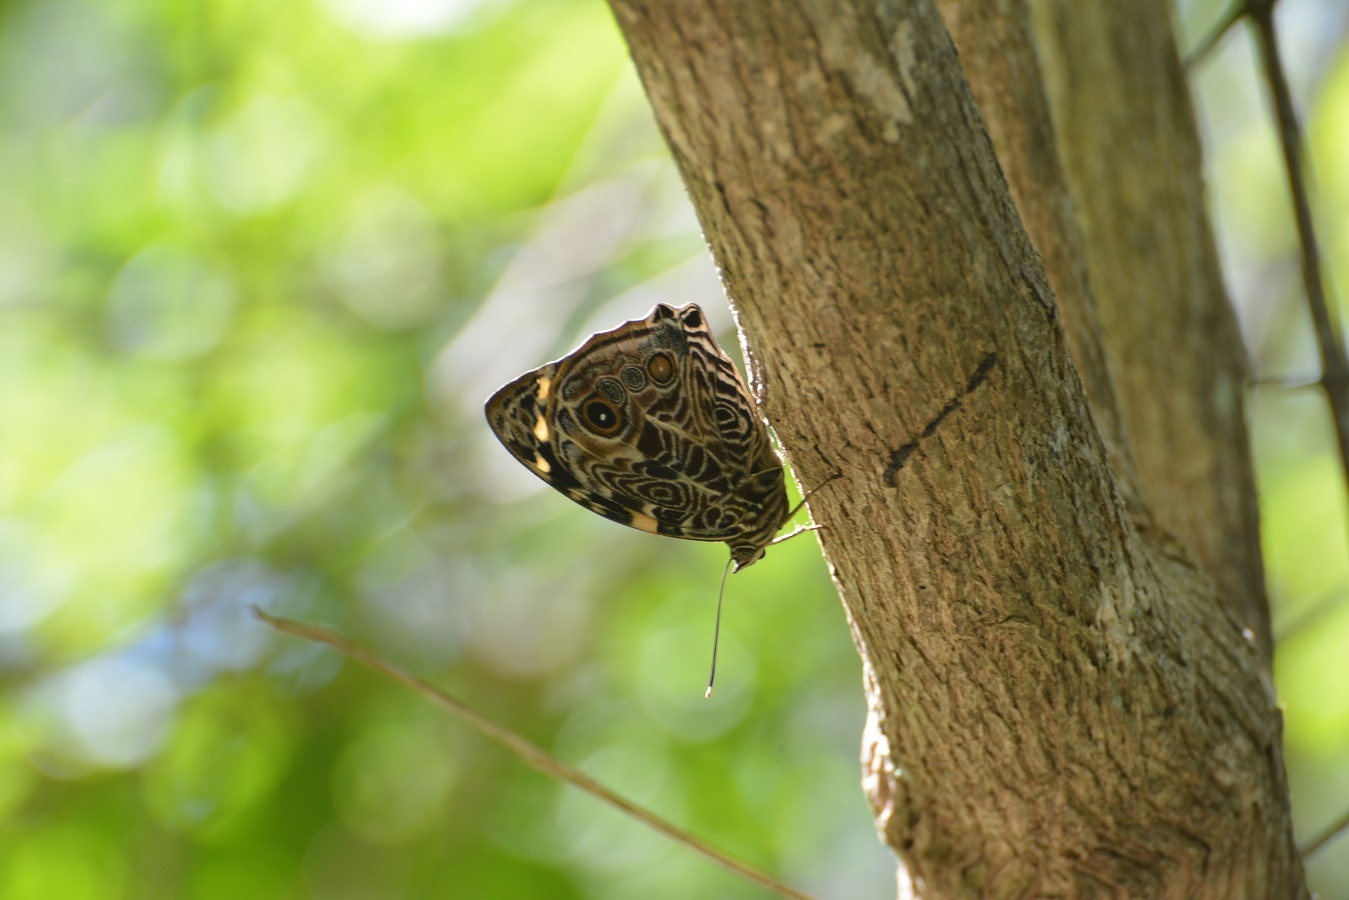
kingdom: Animalia
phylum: Arthropoda
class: Insecta
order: Lepidoptera
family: Nymphalidae
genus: Smyrna
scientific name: Smyrna blomfildia
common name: Blomfild's beauty
